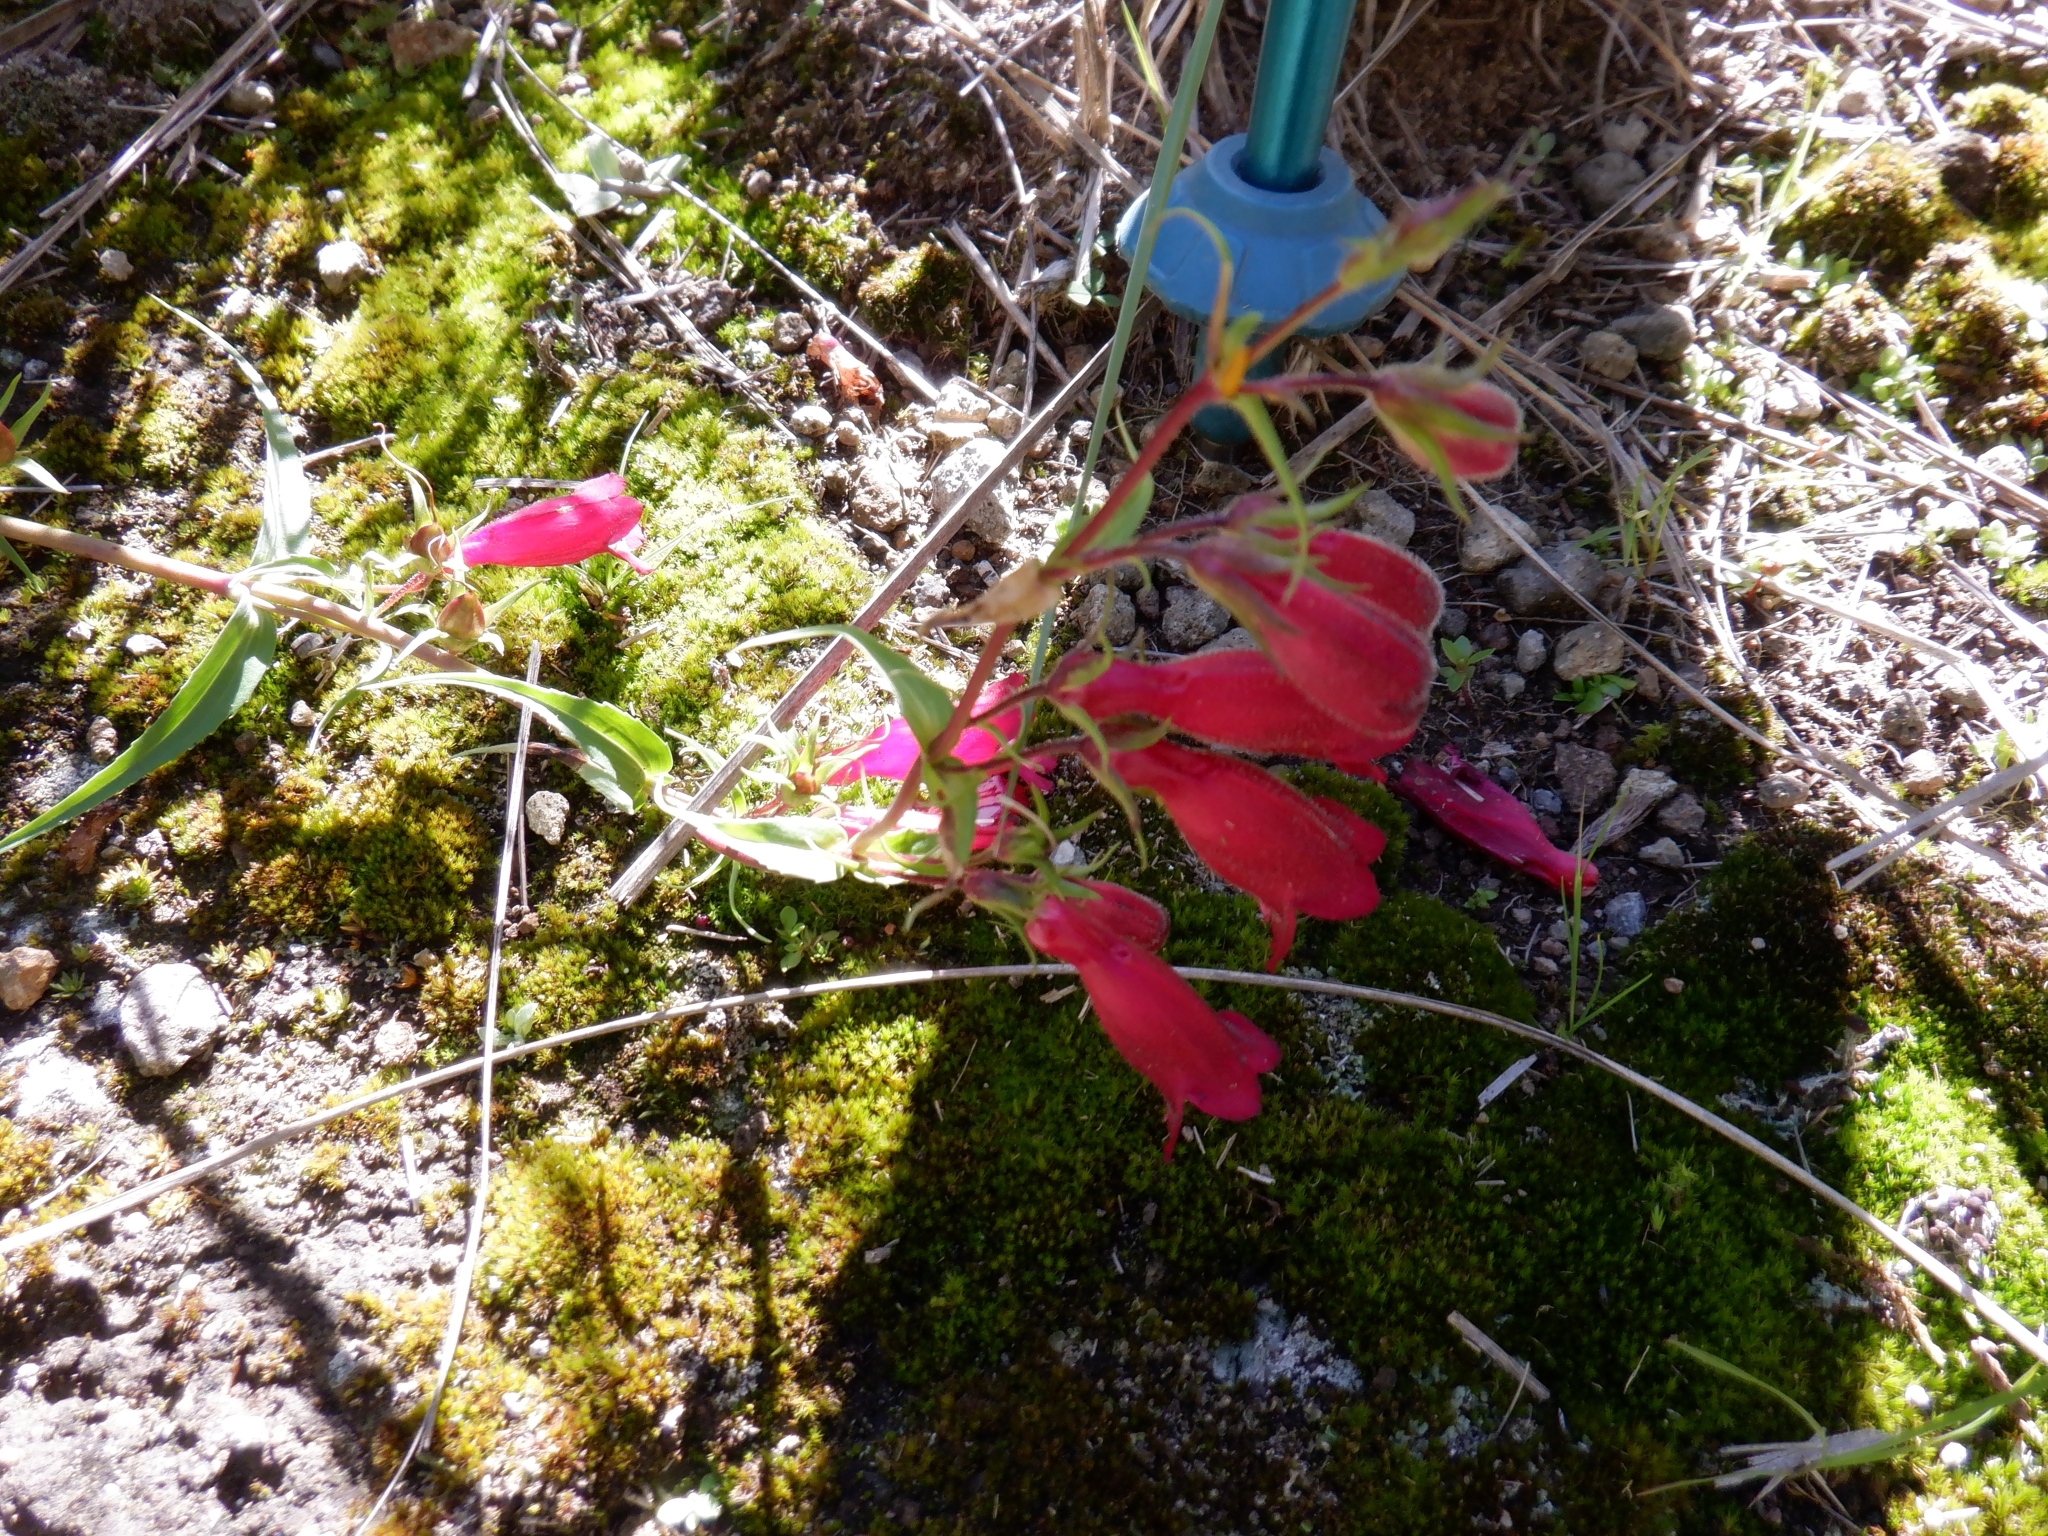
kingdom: Plantae
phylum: Tracheophyta
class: Magnoliopsida
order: Lamiales
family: Plantaginaceae
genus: Penstemon
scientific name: Penstemon roseus
